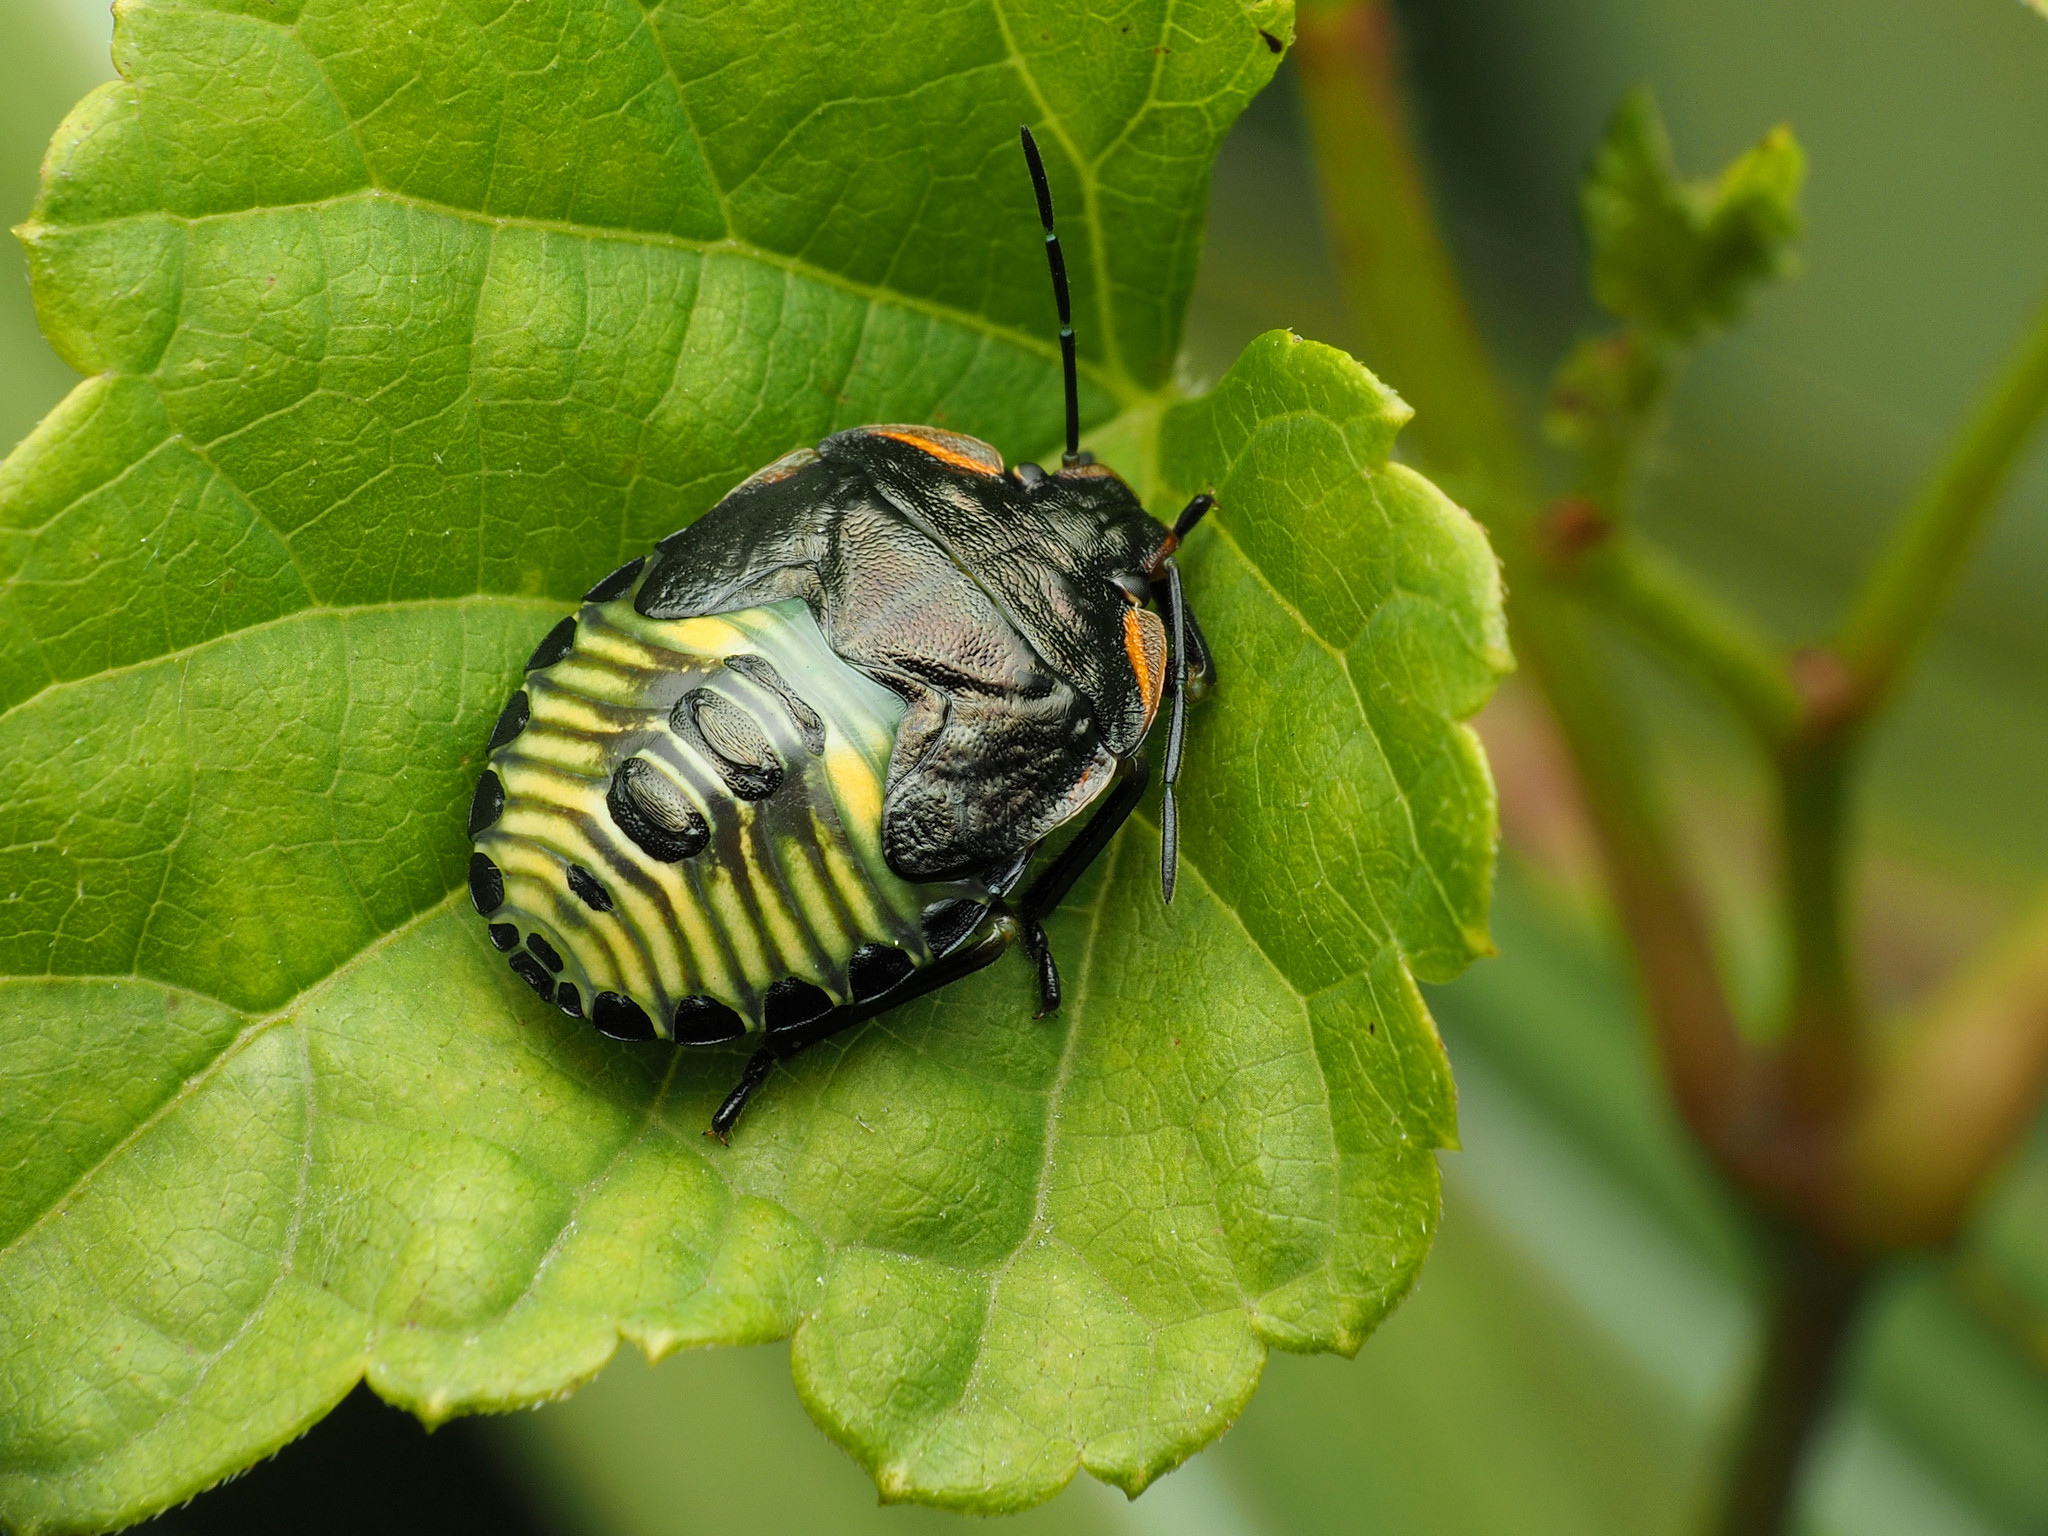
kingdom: Animalia
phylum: Arthropoda
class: Insecta
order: Hemiptera
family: Pentatomidae
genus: Chinavia
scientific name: Chinavia hilaris
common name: Green stink bug
